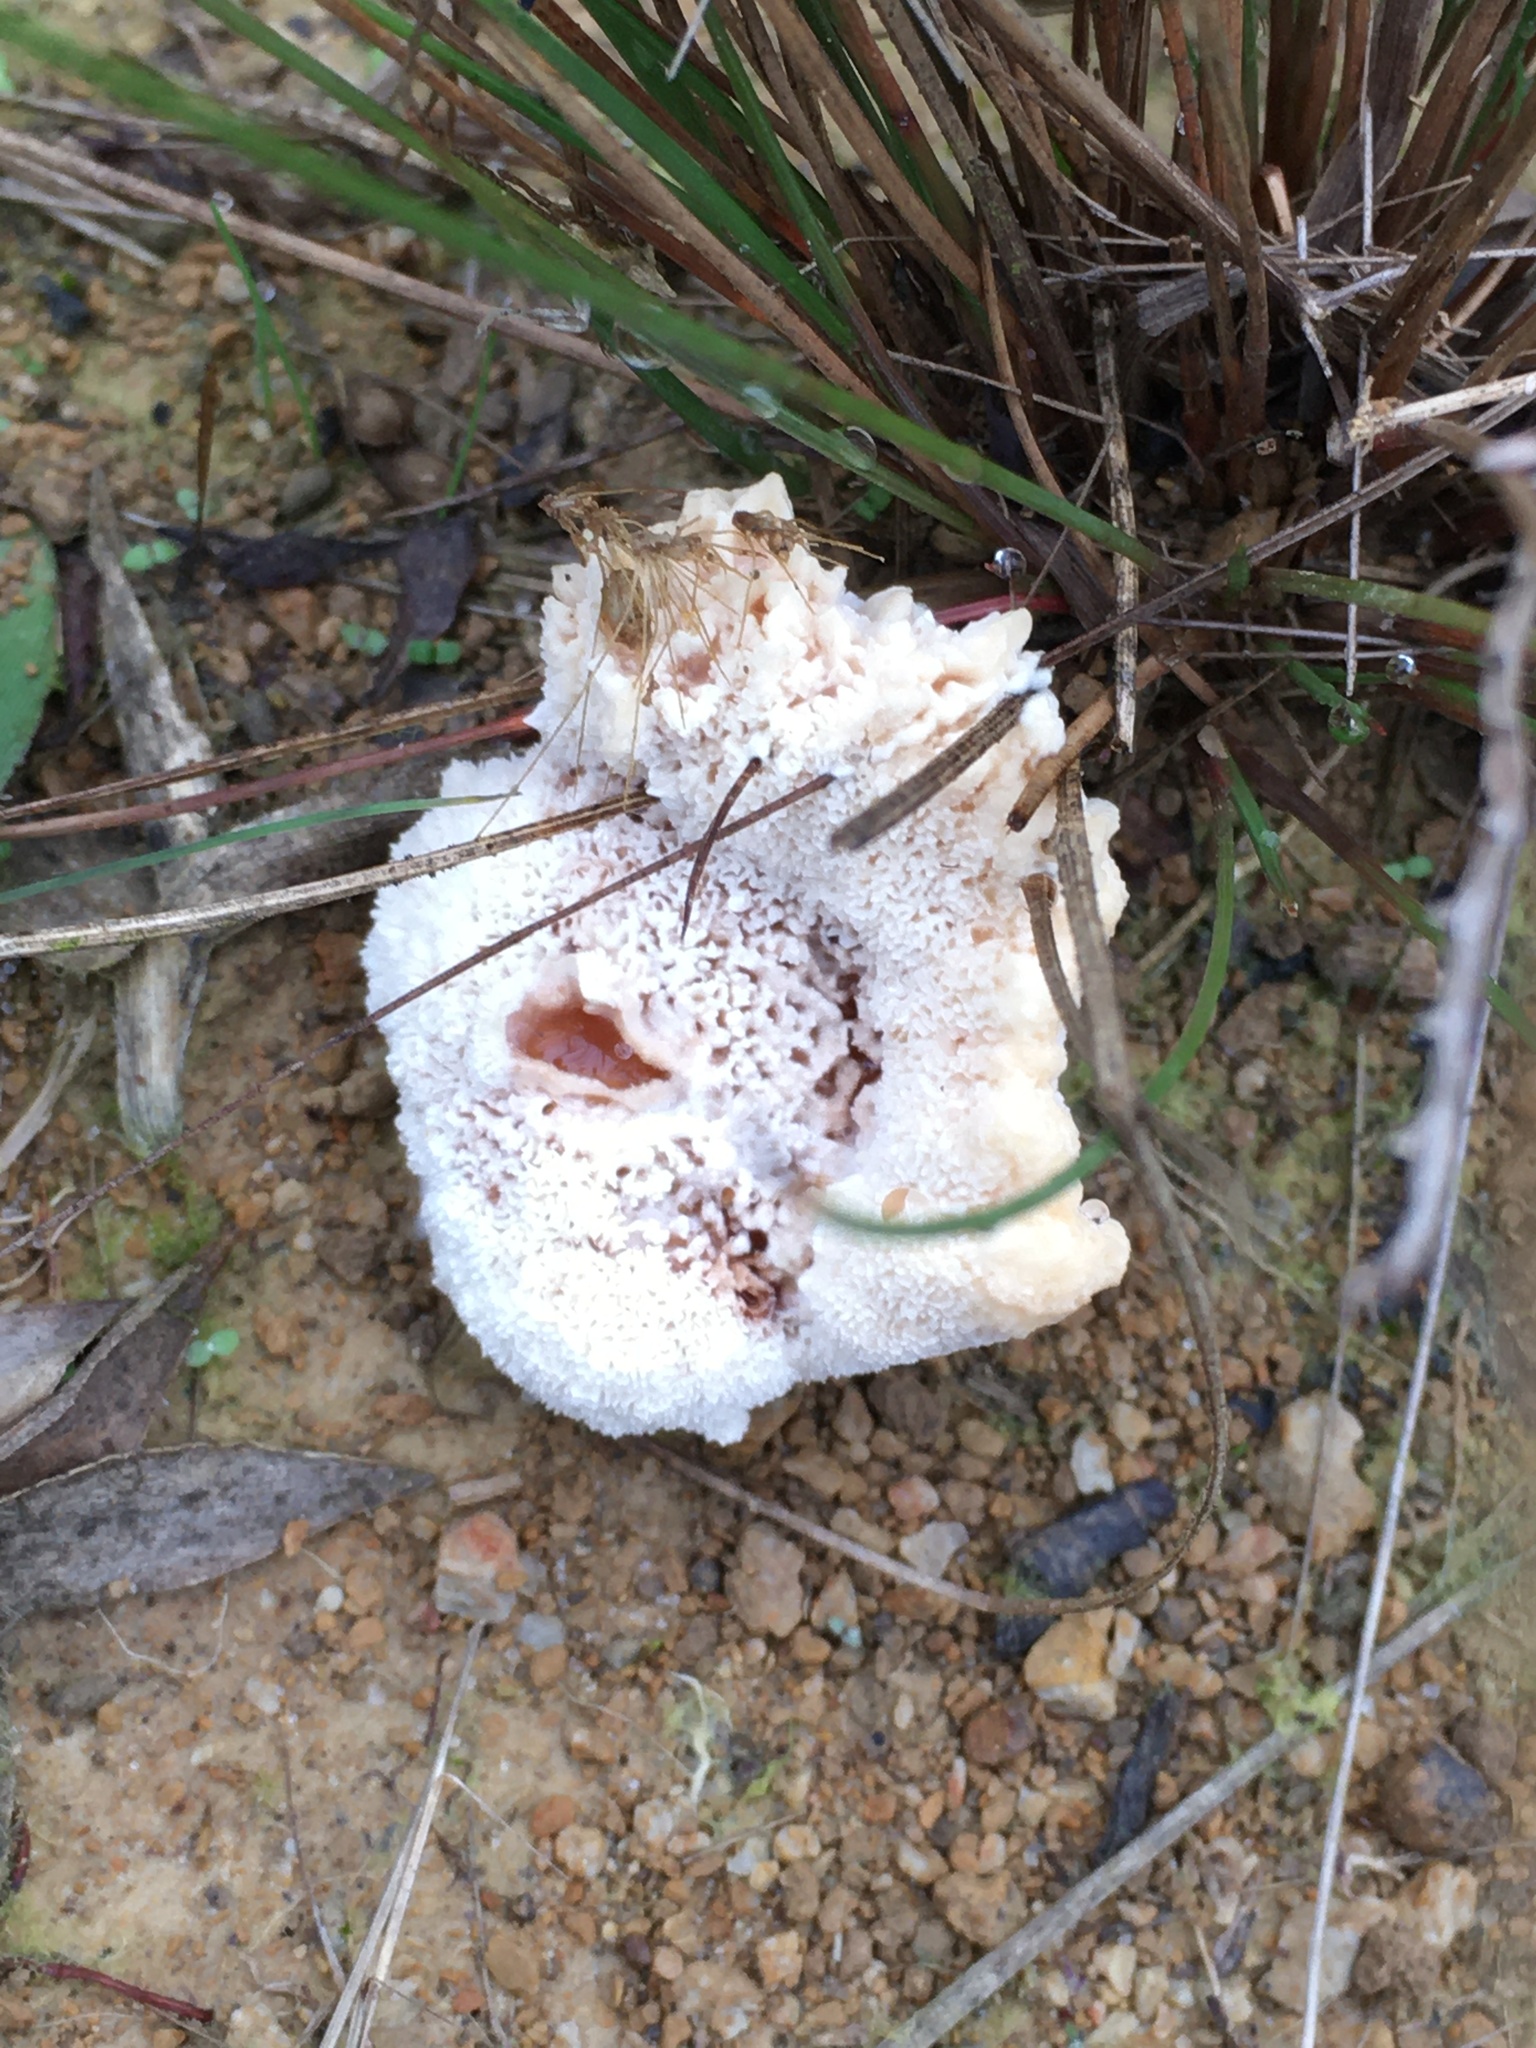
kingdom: Fungi
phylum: Basidiomycota
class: Agaricomycetes
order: Polyporales
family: Podoscyphaceae
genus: Abortiporus
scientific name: Abortiporus biennis
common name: Blushing rosette
